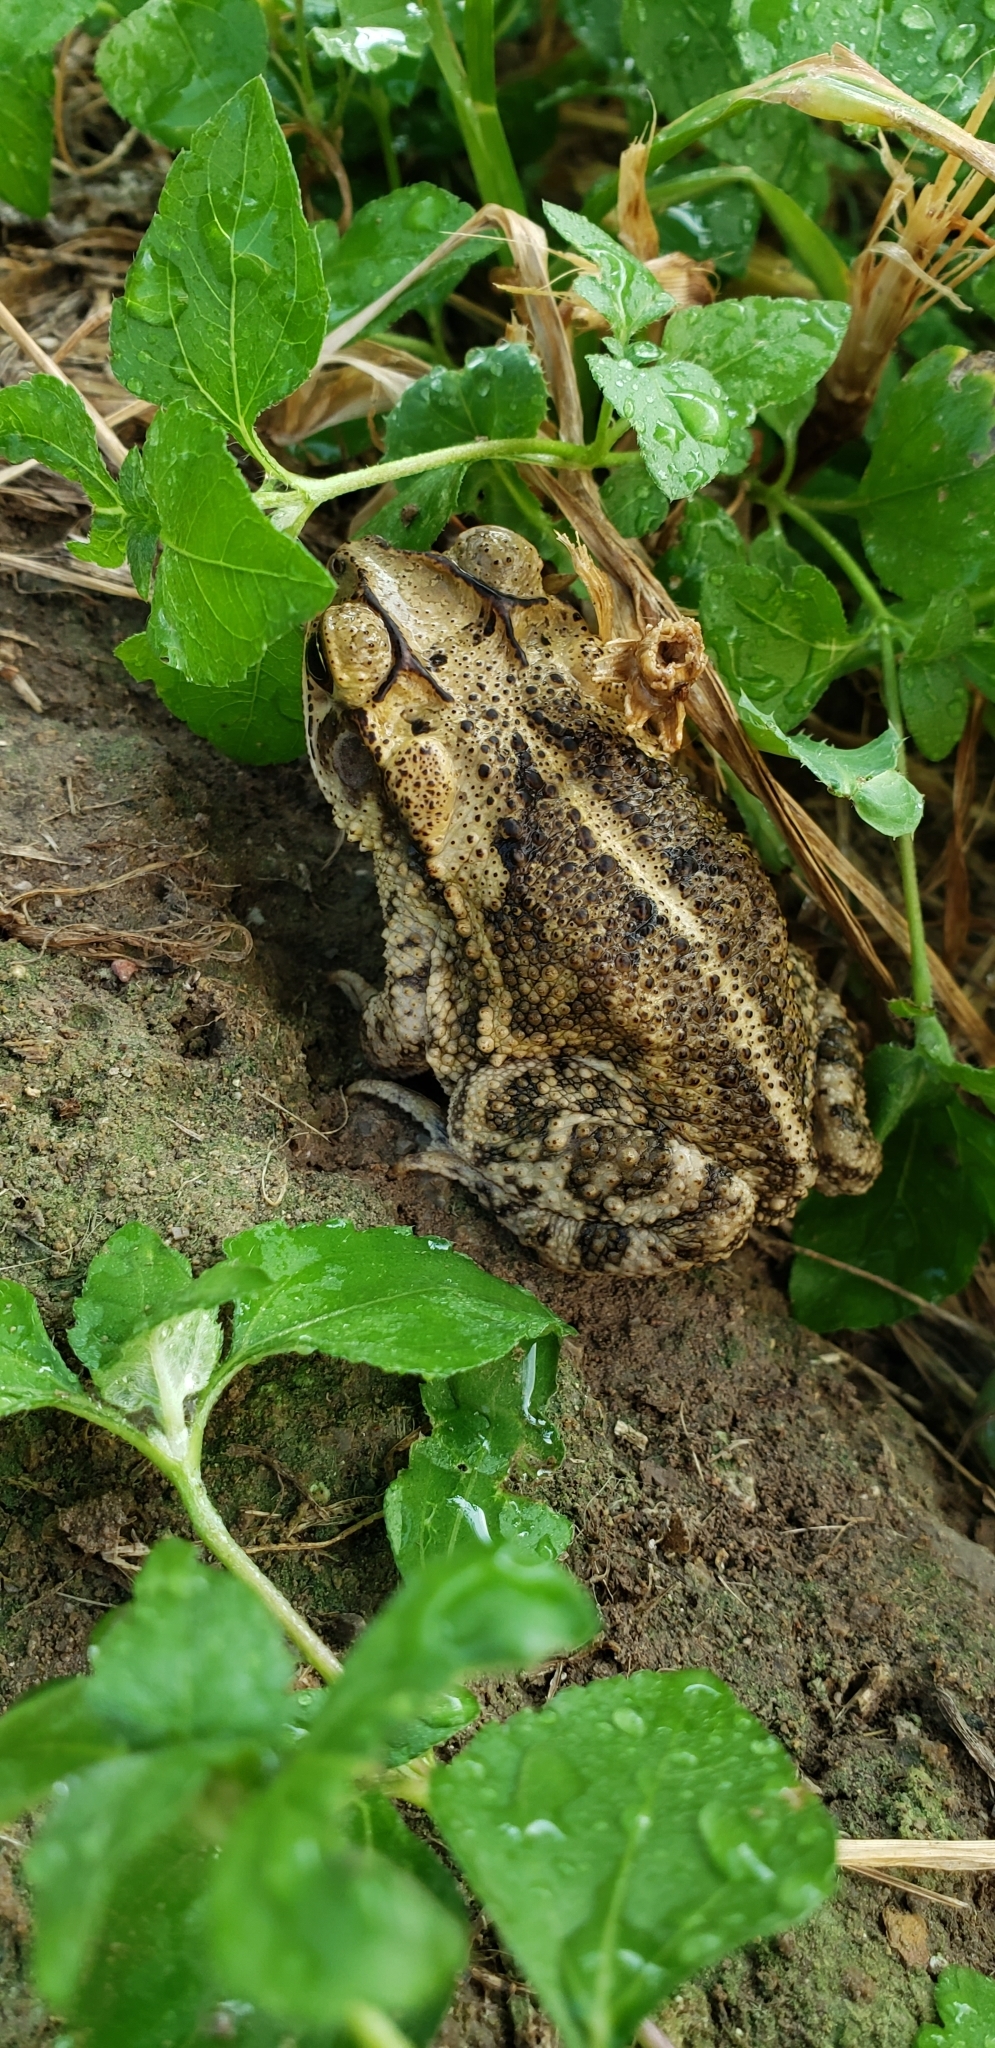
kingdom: Animalia
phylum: Chordata
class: Amphibia
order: Anura
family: Bufonidae
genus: Incilius
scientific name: Incilius nebulifer
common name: Gulf coast toad
